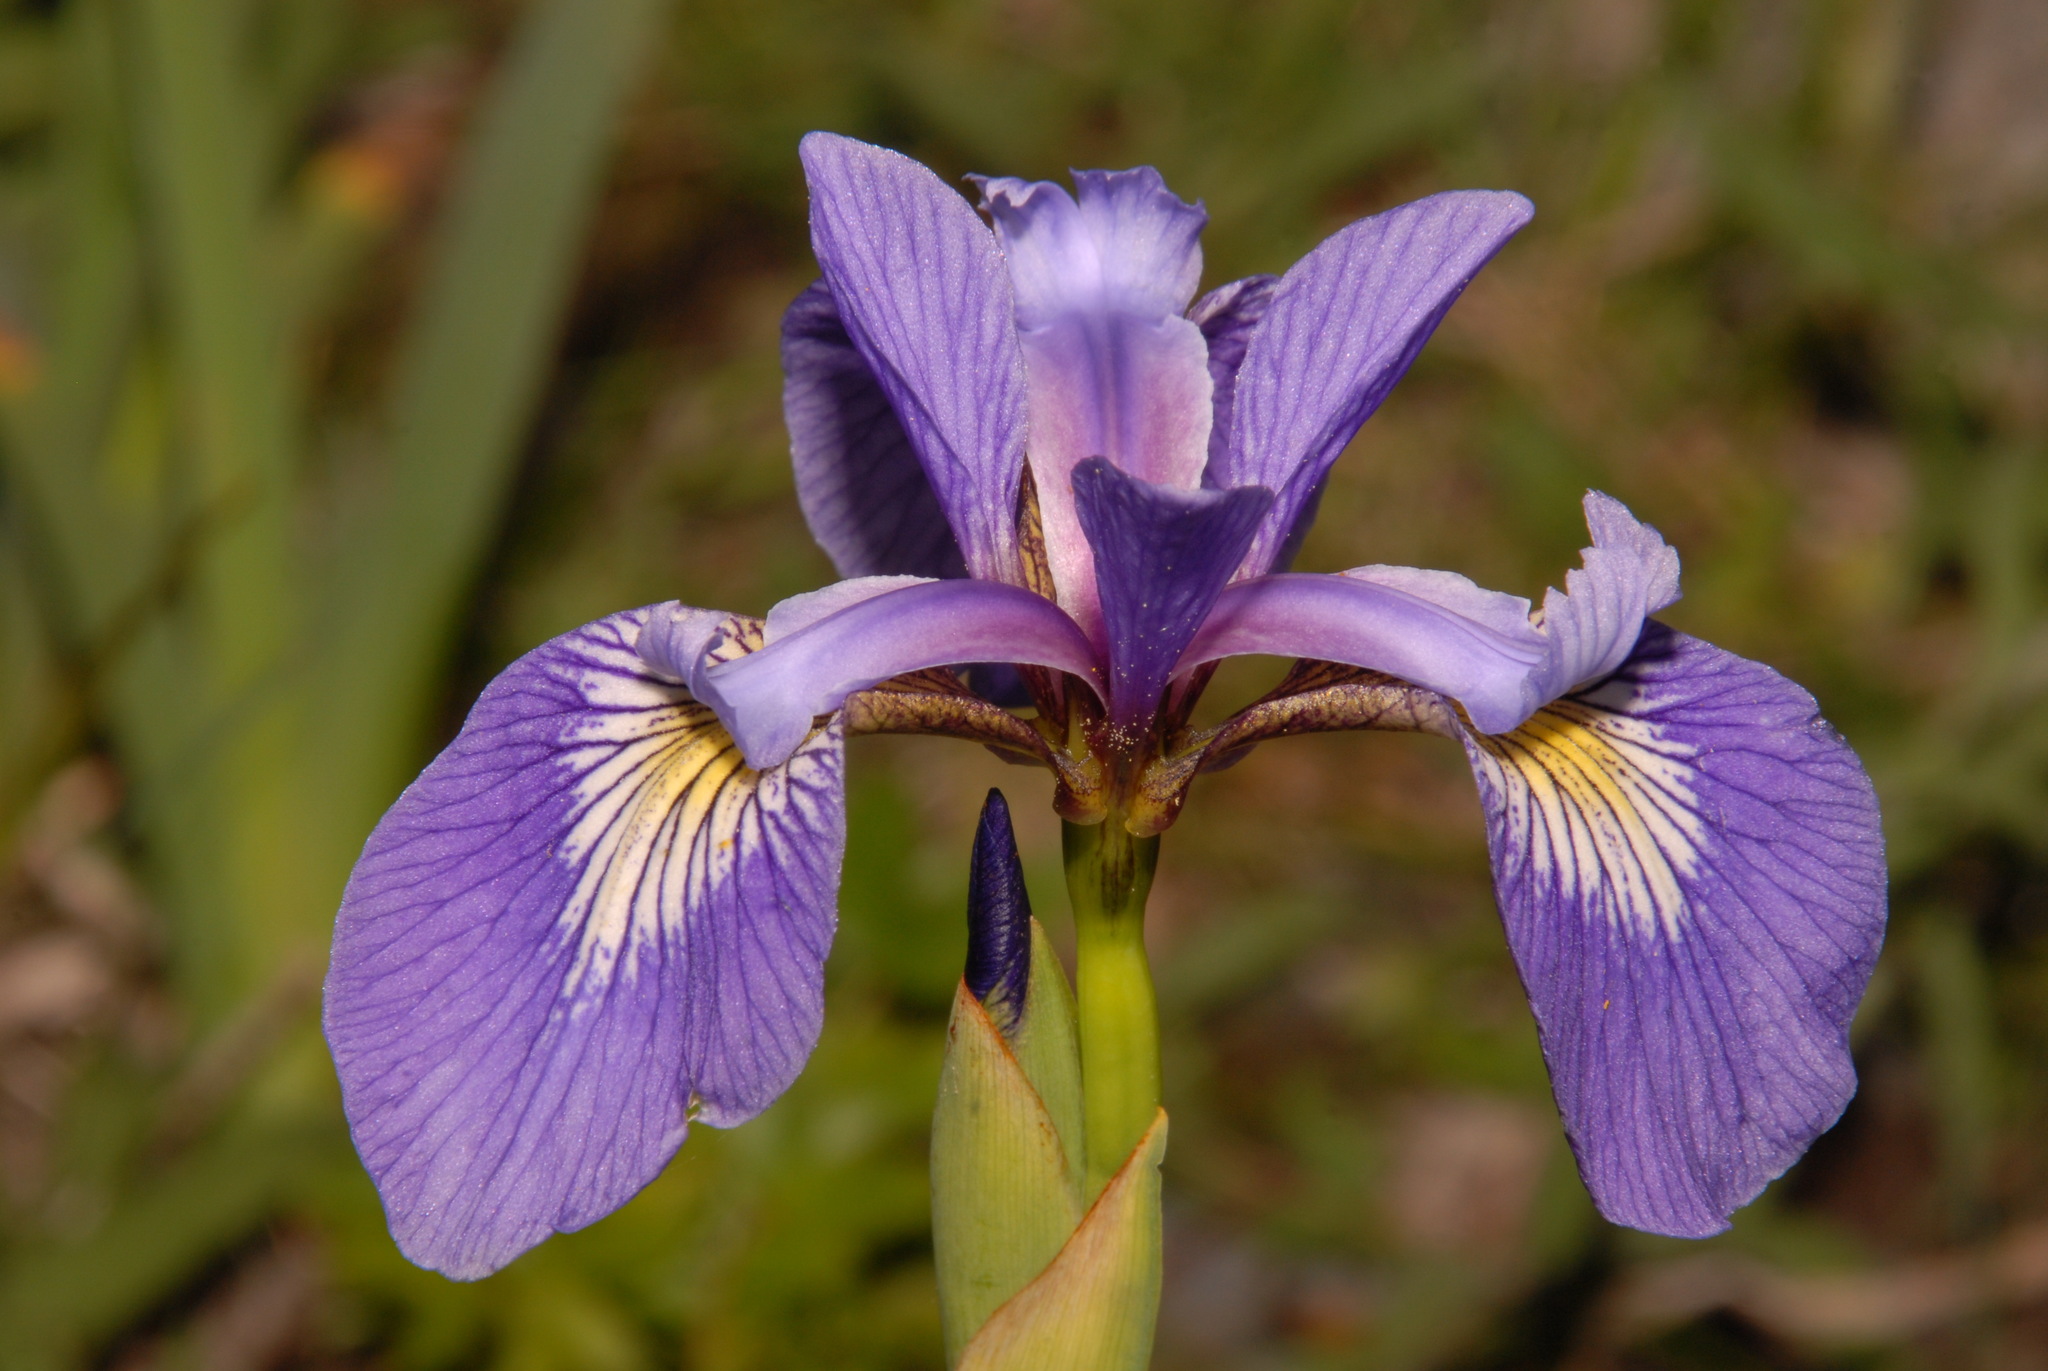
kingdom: Plantae
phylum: Tracheophyta
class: Liliopsida
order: Asparagales
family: Iridaceae
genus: Iris
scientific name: Iris versicolor
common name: Purple iris
